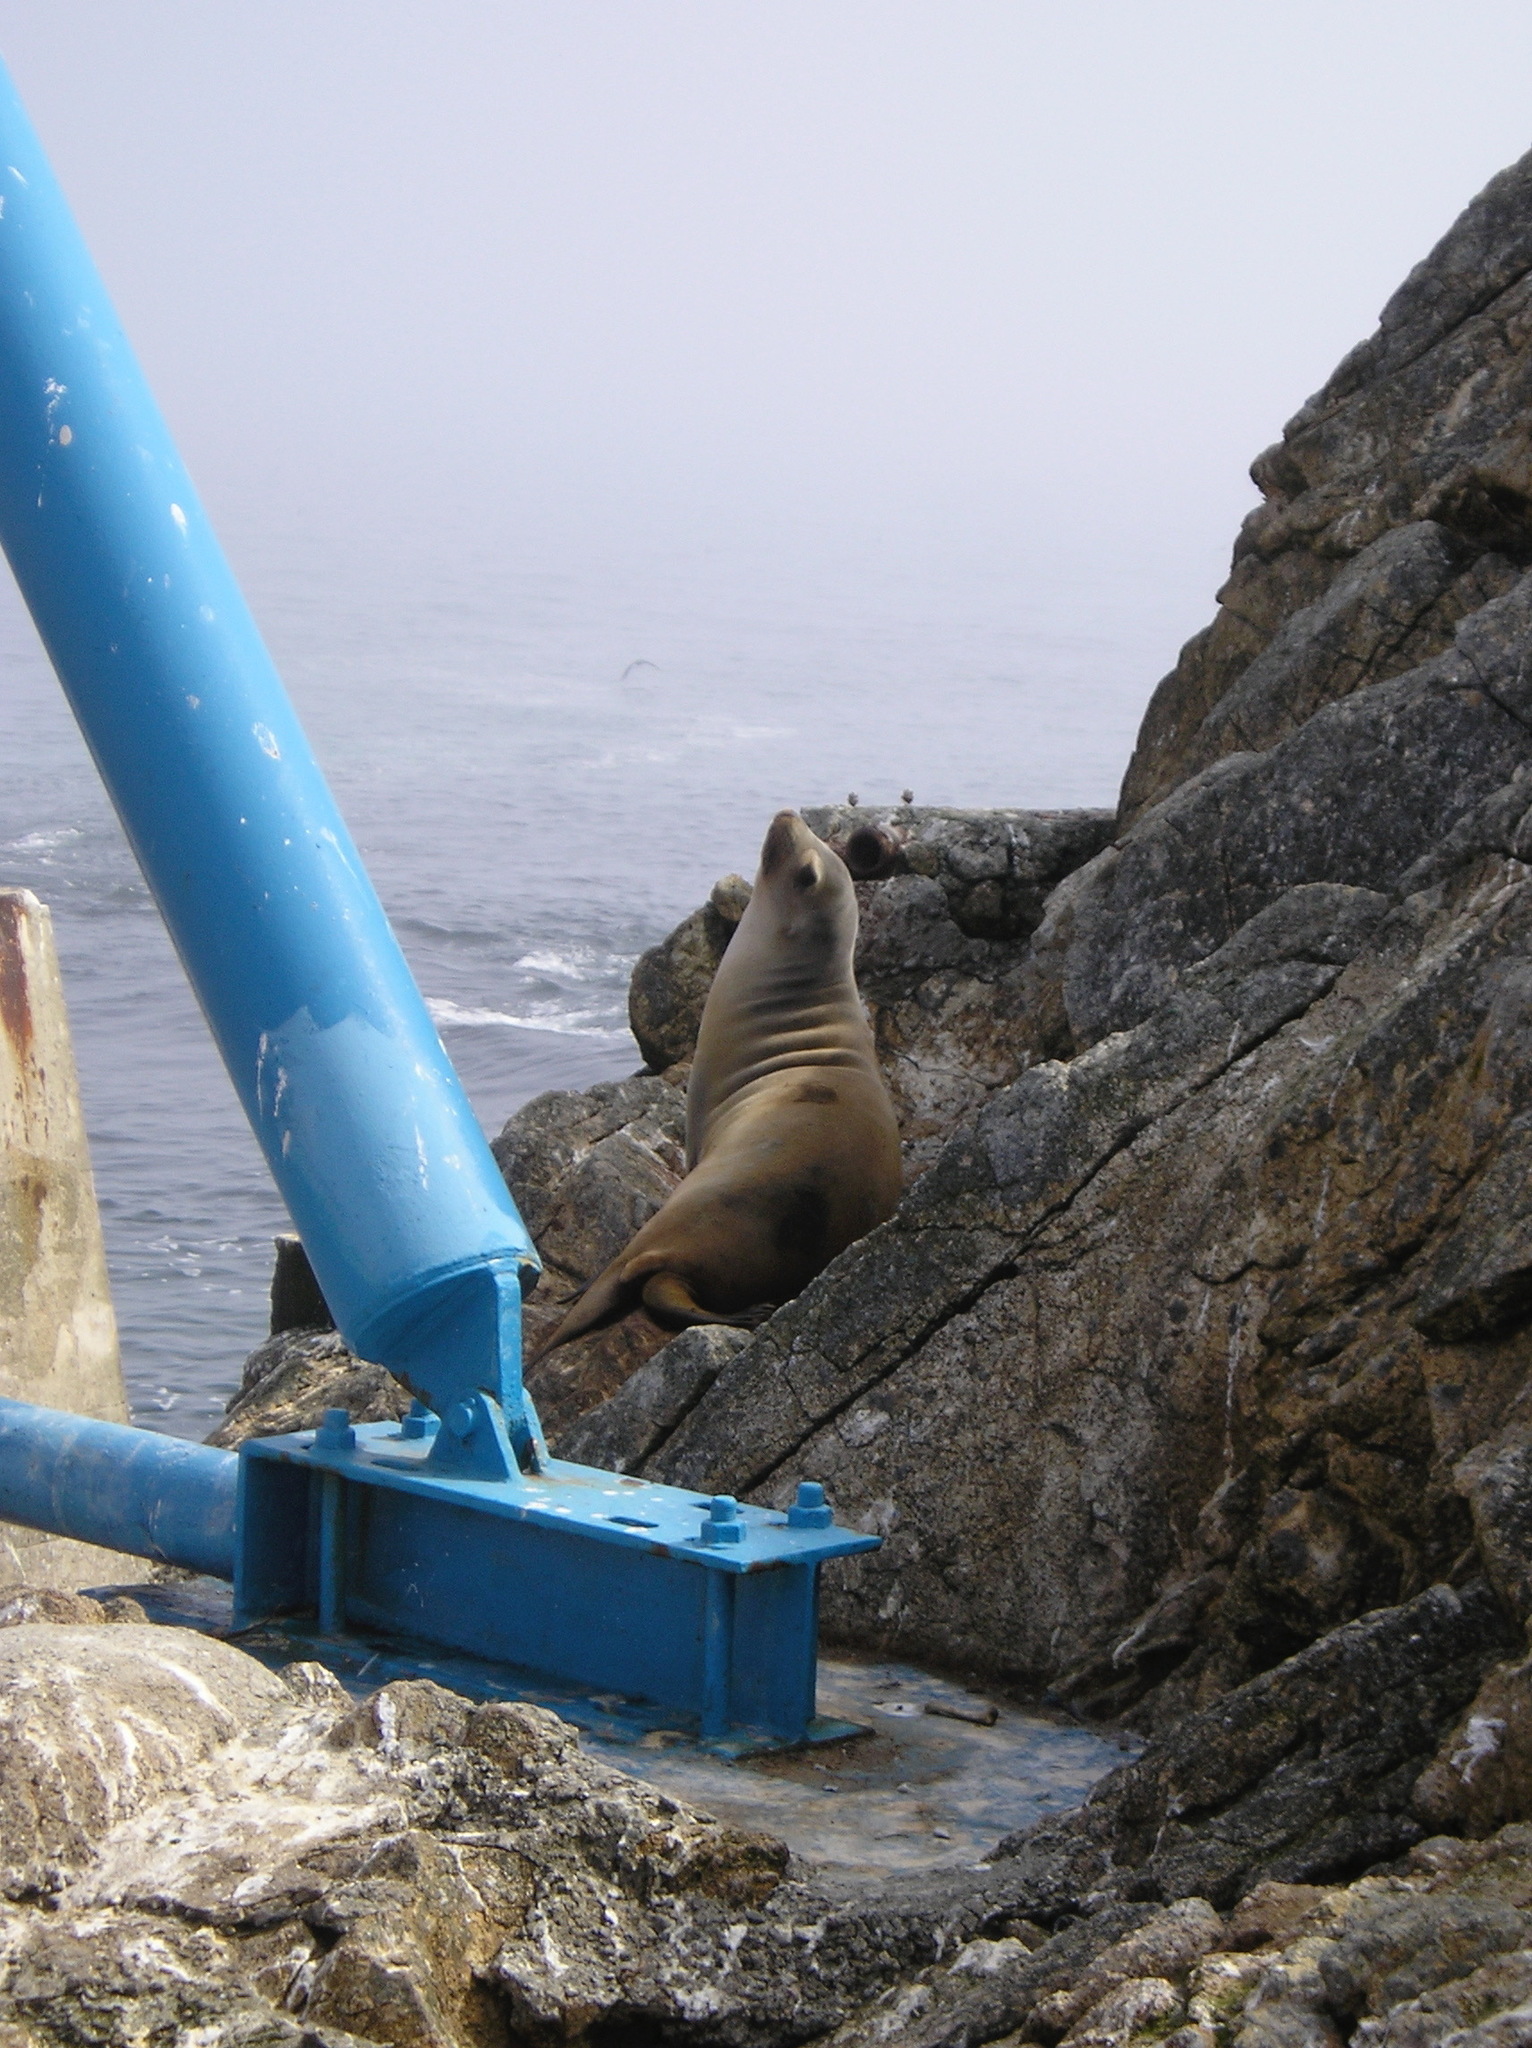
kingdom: Animalia
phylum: Chordata
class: Mammalia
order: Carnivora
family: Otariidae
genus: Zalophus
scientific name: Zalophus californianus
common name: California sea lion
